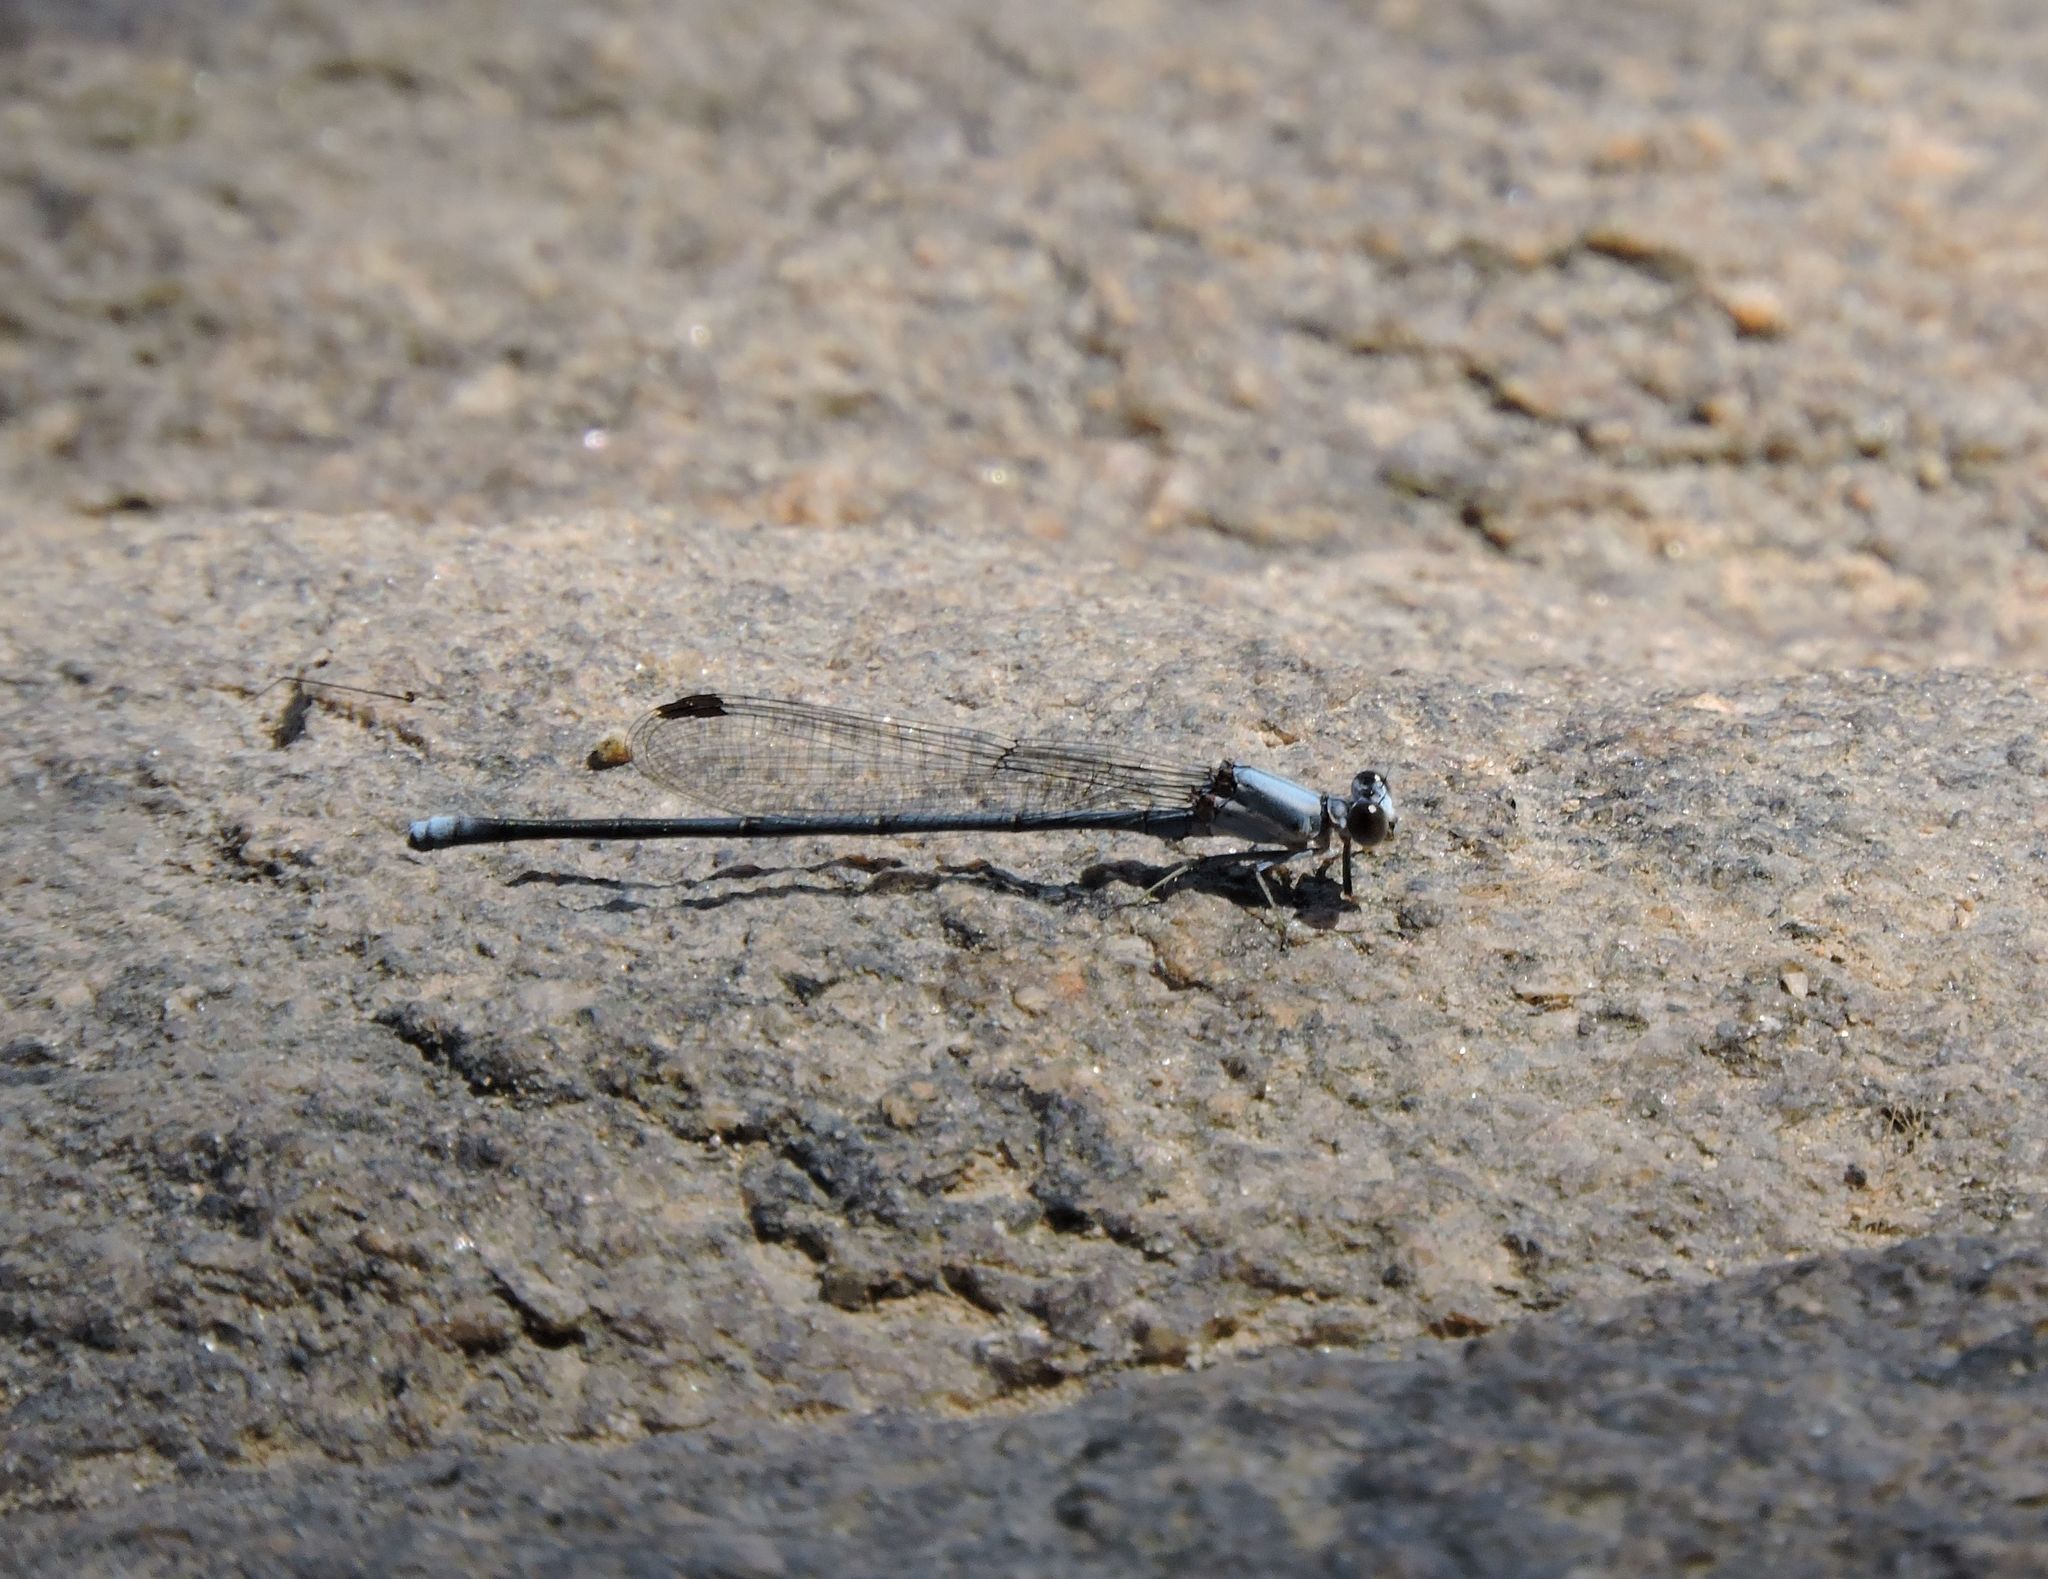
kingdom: Animalia
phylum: Arthropoda
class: Insecta
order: Odonata
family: Coenagrionidae
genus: Argia
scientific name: Argia moesta
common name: Powdered dancer
